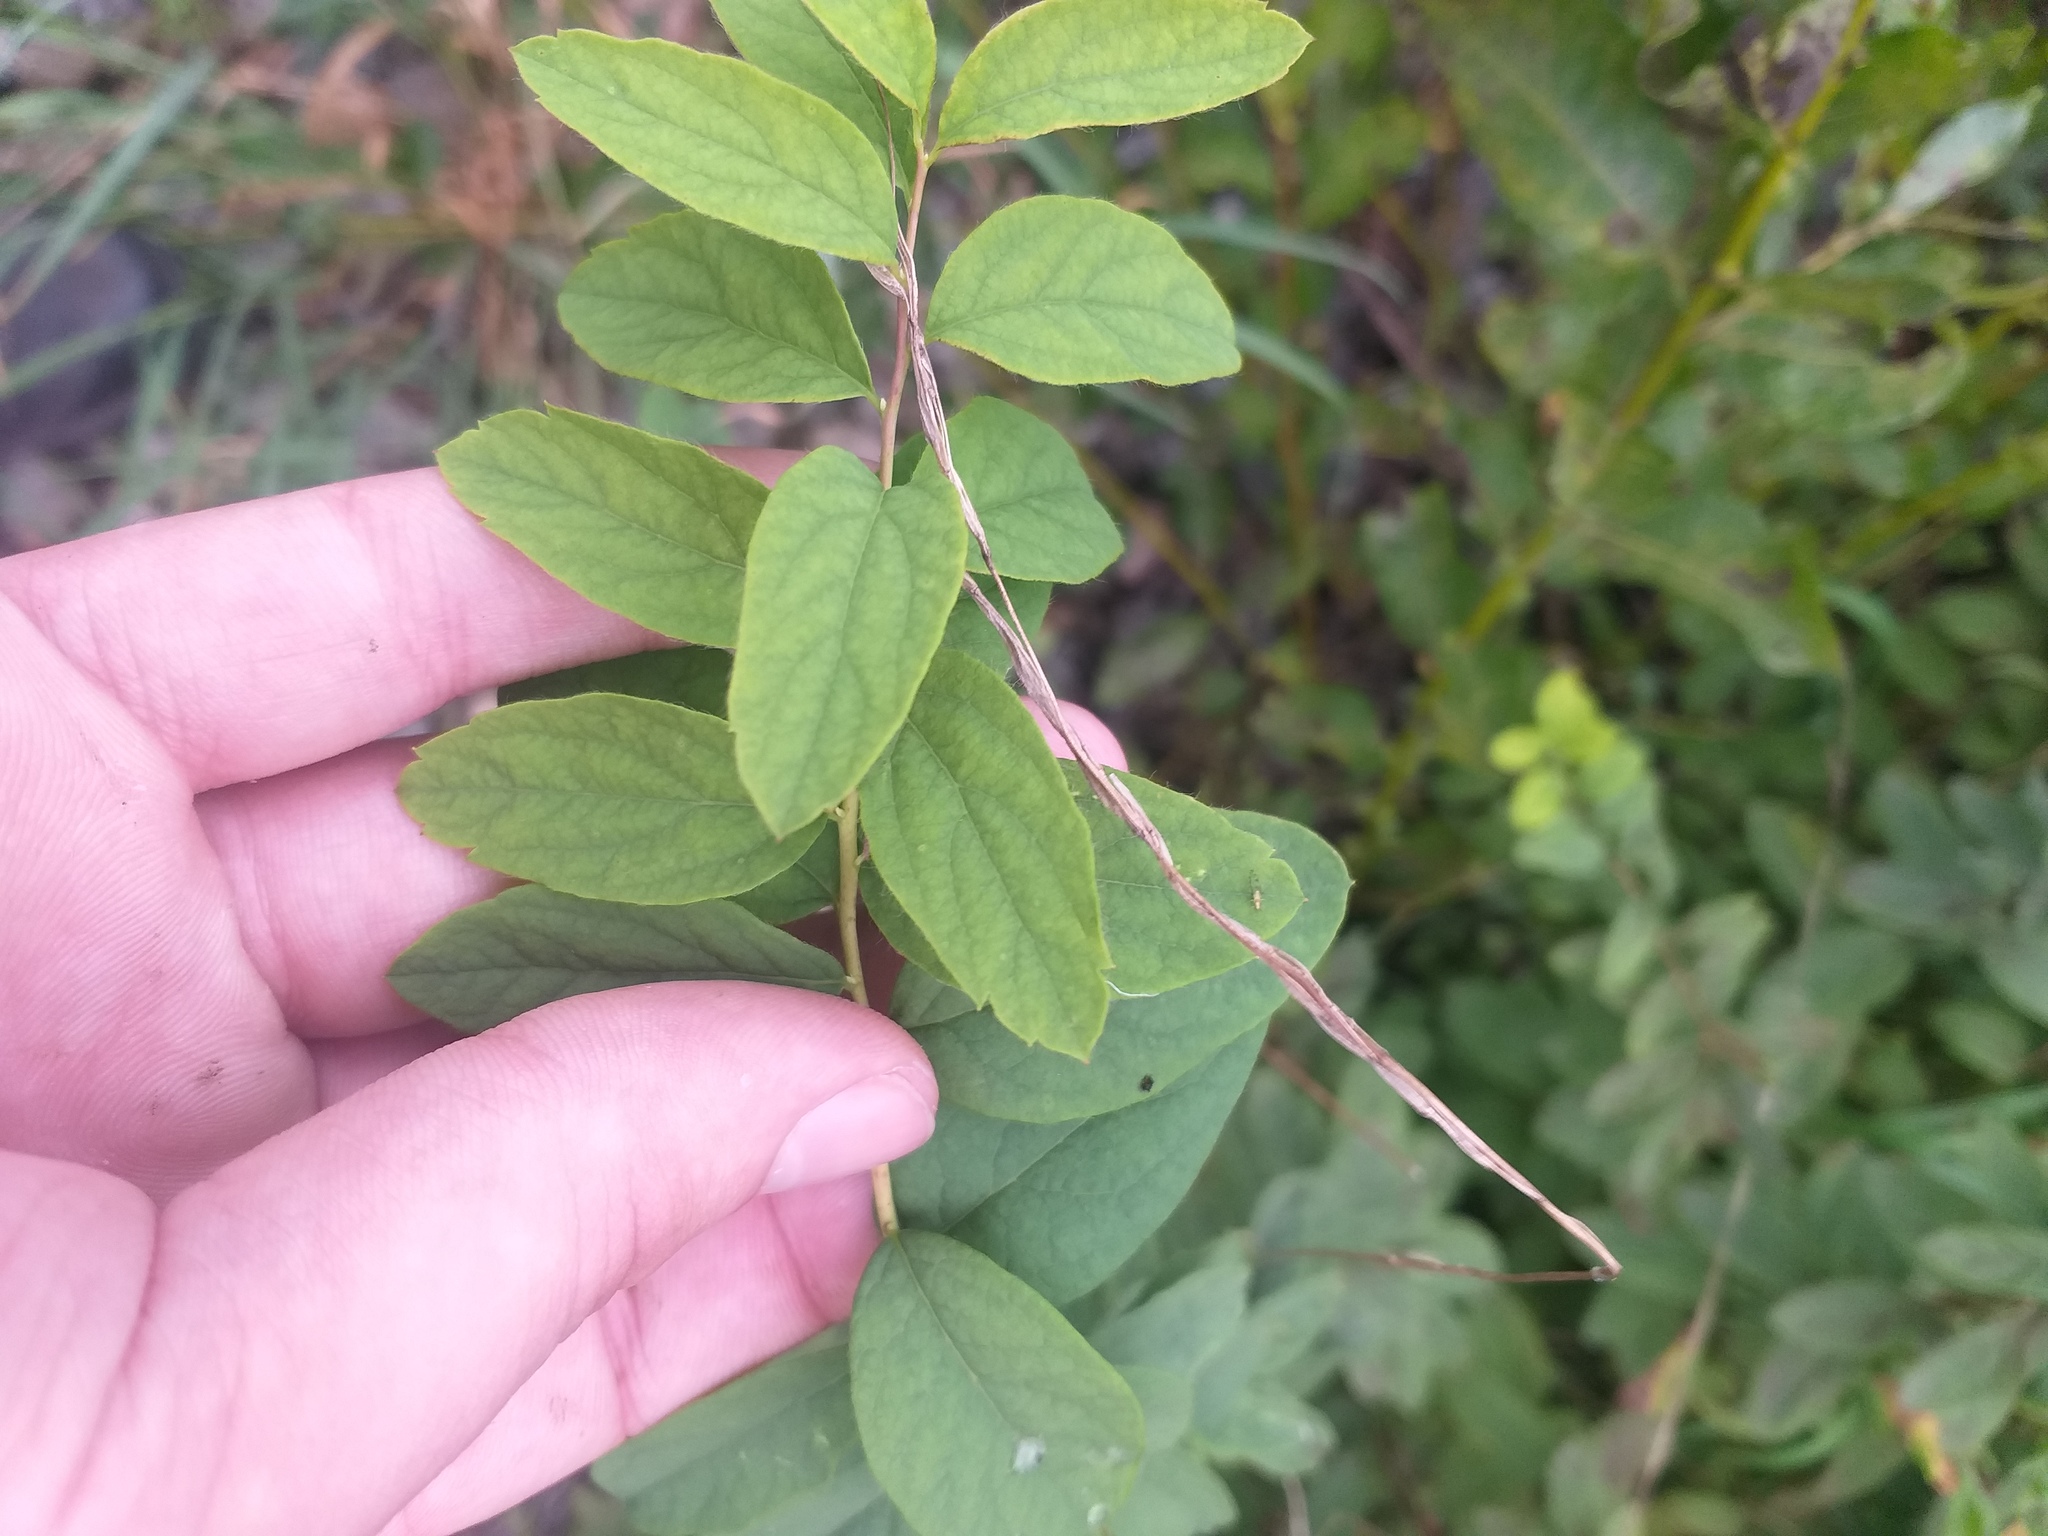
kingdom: Plantae
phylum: Tracheophyta
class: Magnoliopsida
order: Rosales
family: Rosaceae
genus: Spiraea
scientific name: Spiraea media
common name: Russian spiraea
